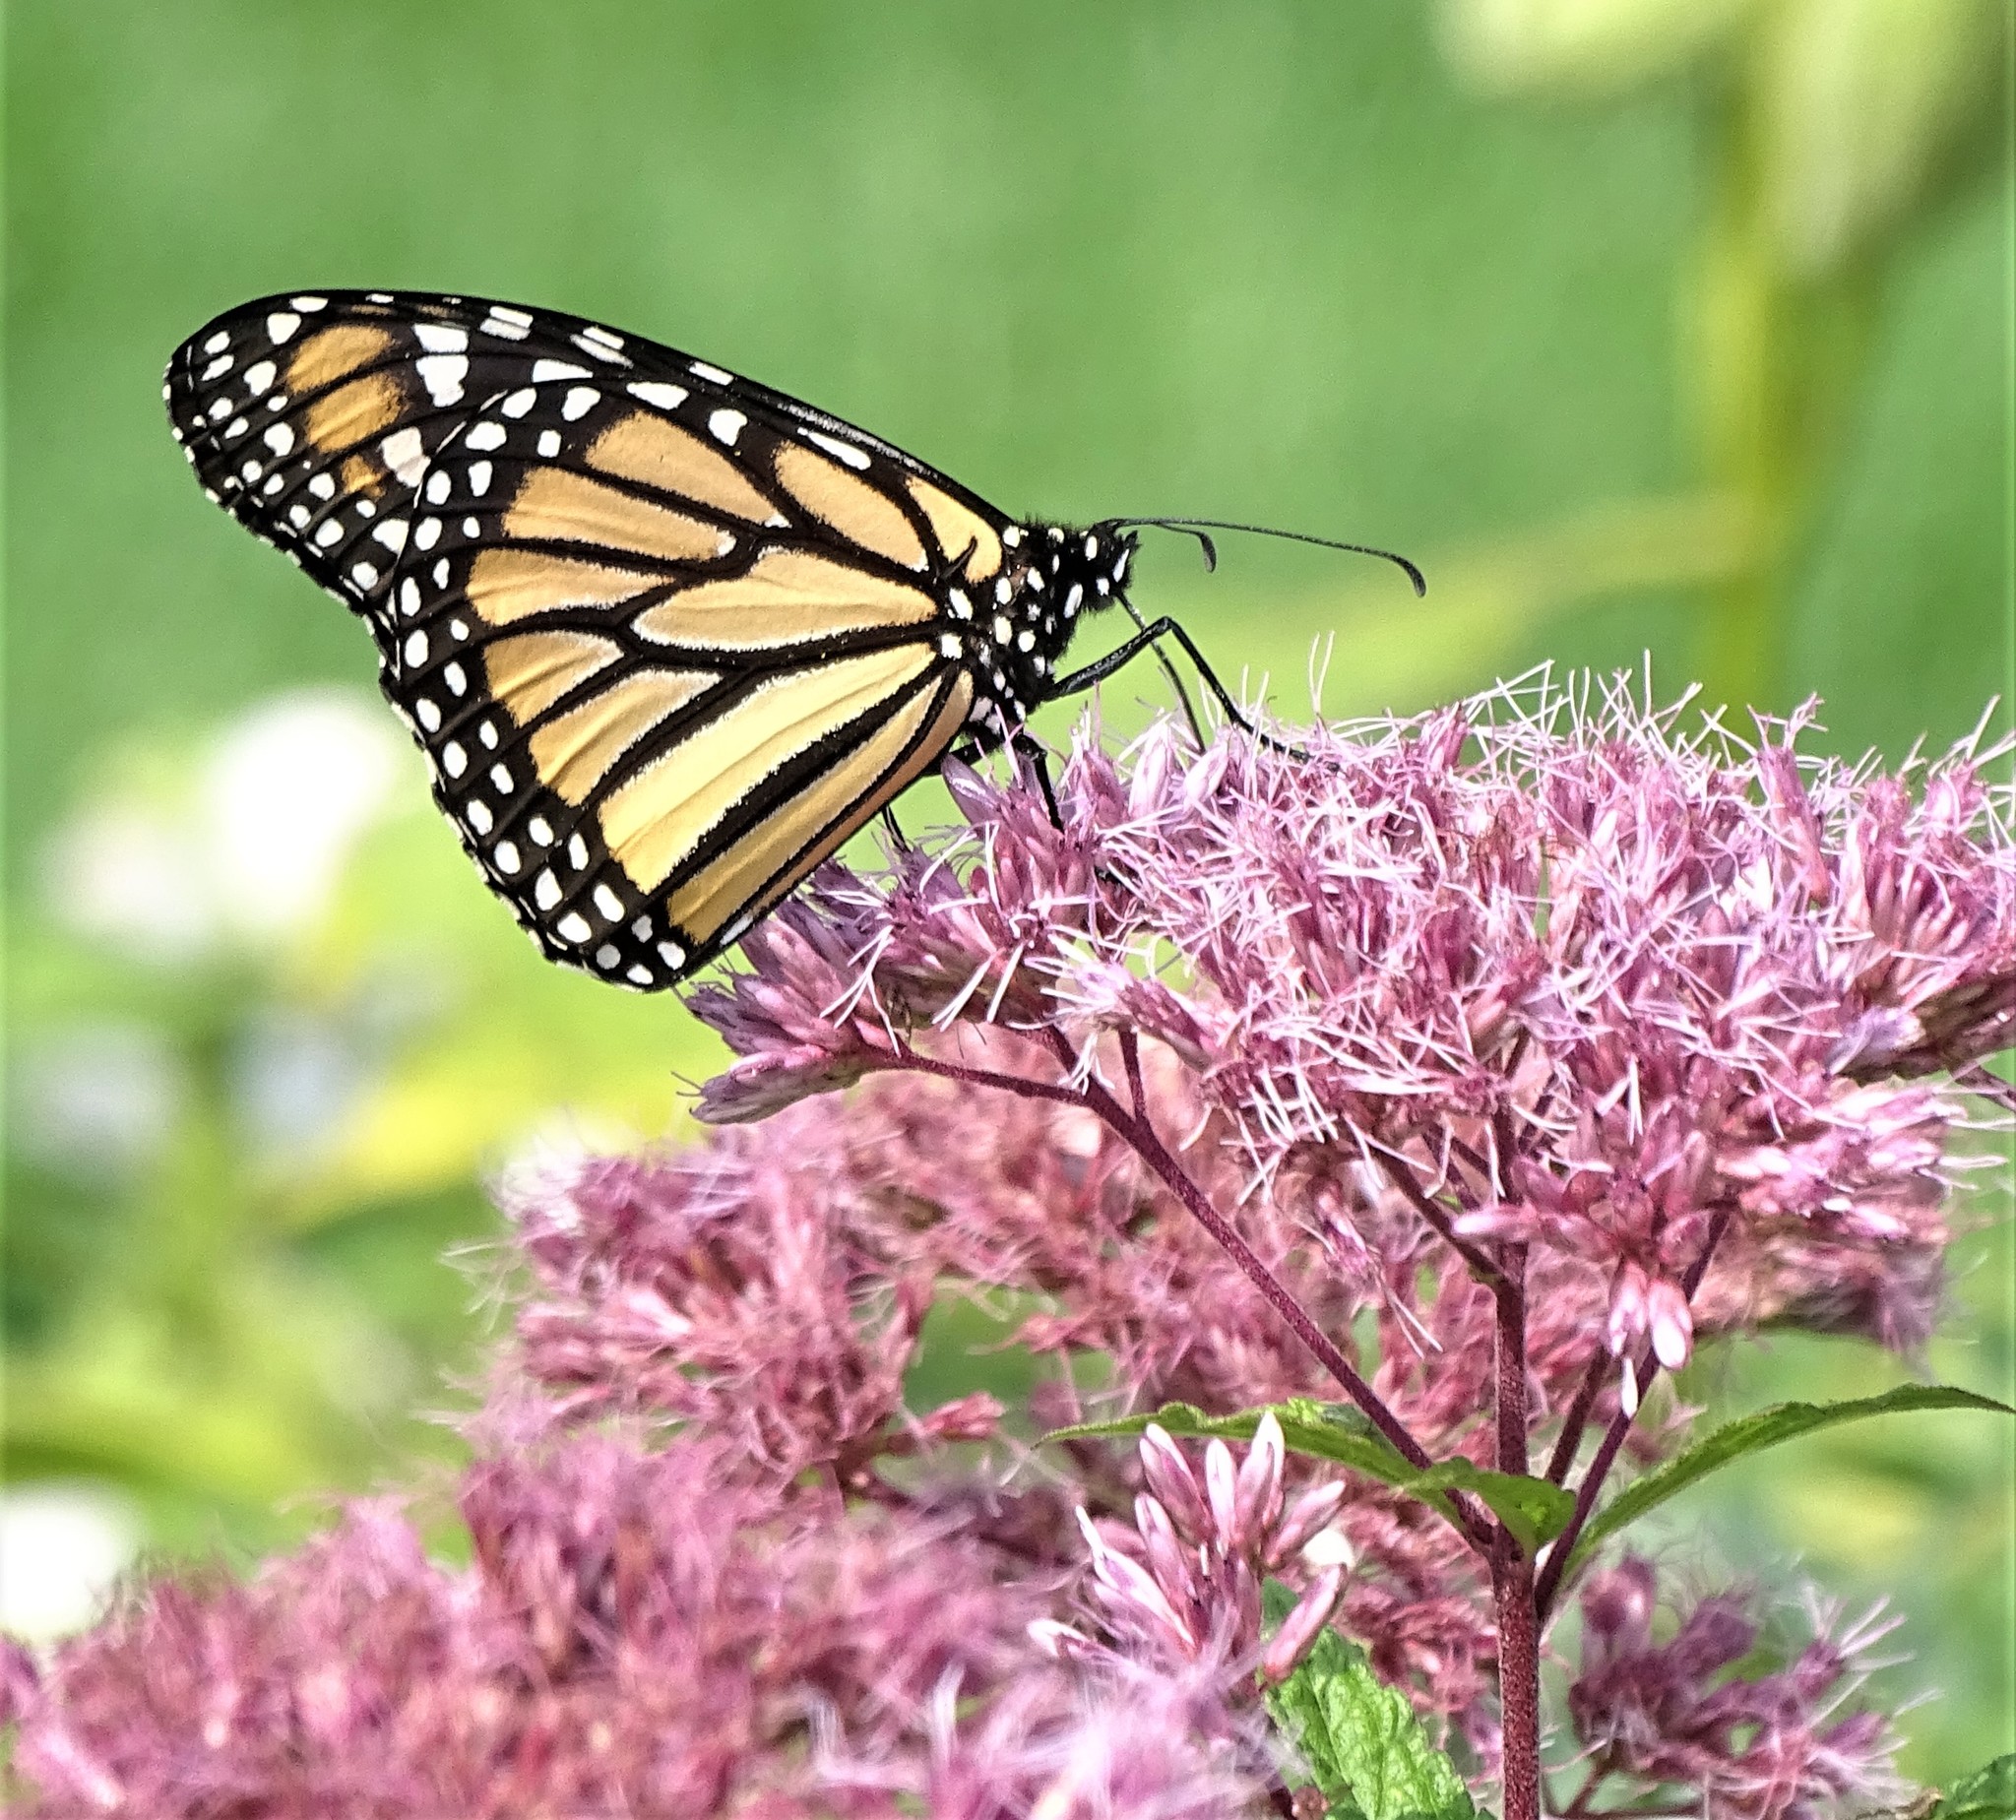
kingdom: Animalia
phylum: Arthropoda
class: Insecta
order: Lepidoptera
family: Nymphalidae
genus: Danaus
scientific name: Danaus plexippus
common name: Monarch
